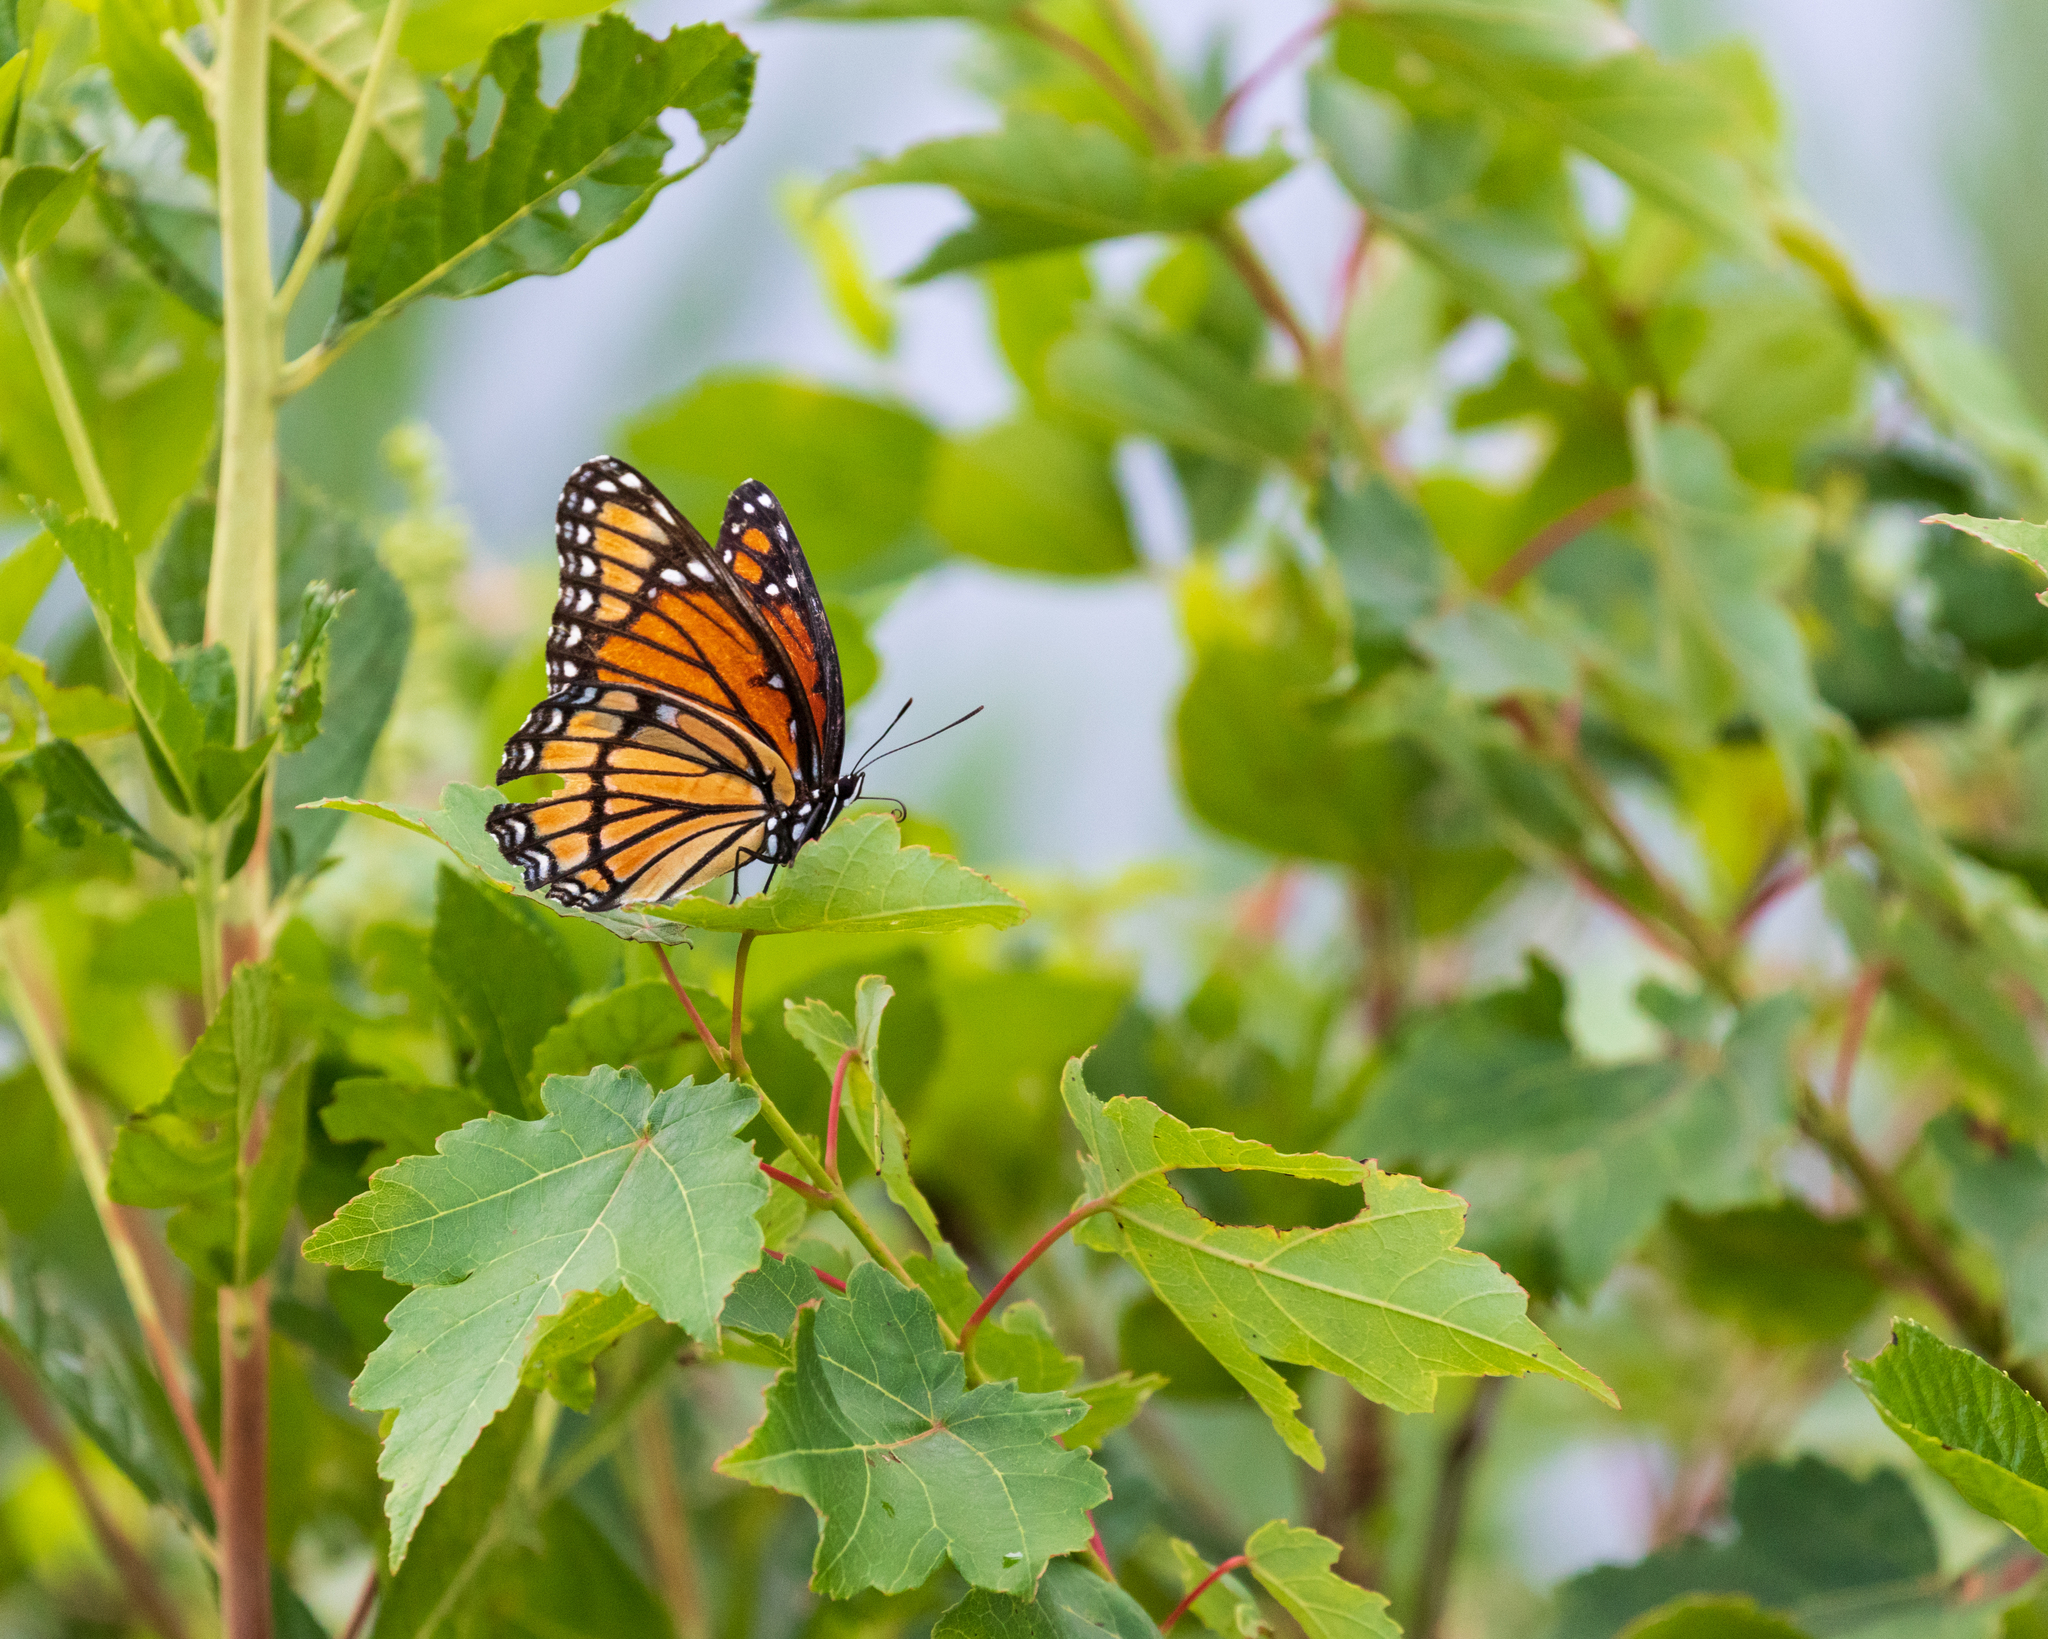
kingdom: Animalia
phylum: Arthropoda
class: Insecta
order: Lepidoptera
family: Nymphalidae
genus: Limenitis
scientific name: Limenitis archippus
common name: Viceroy
